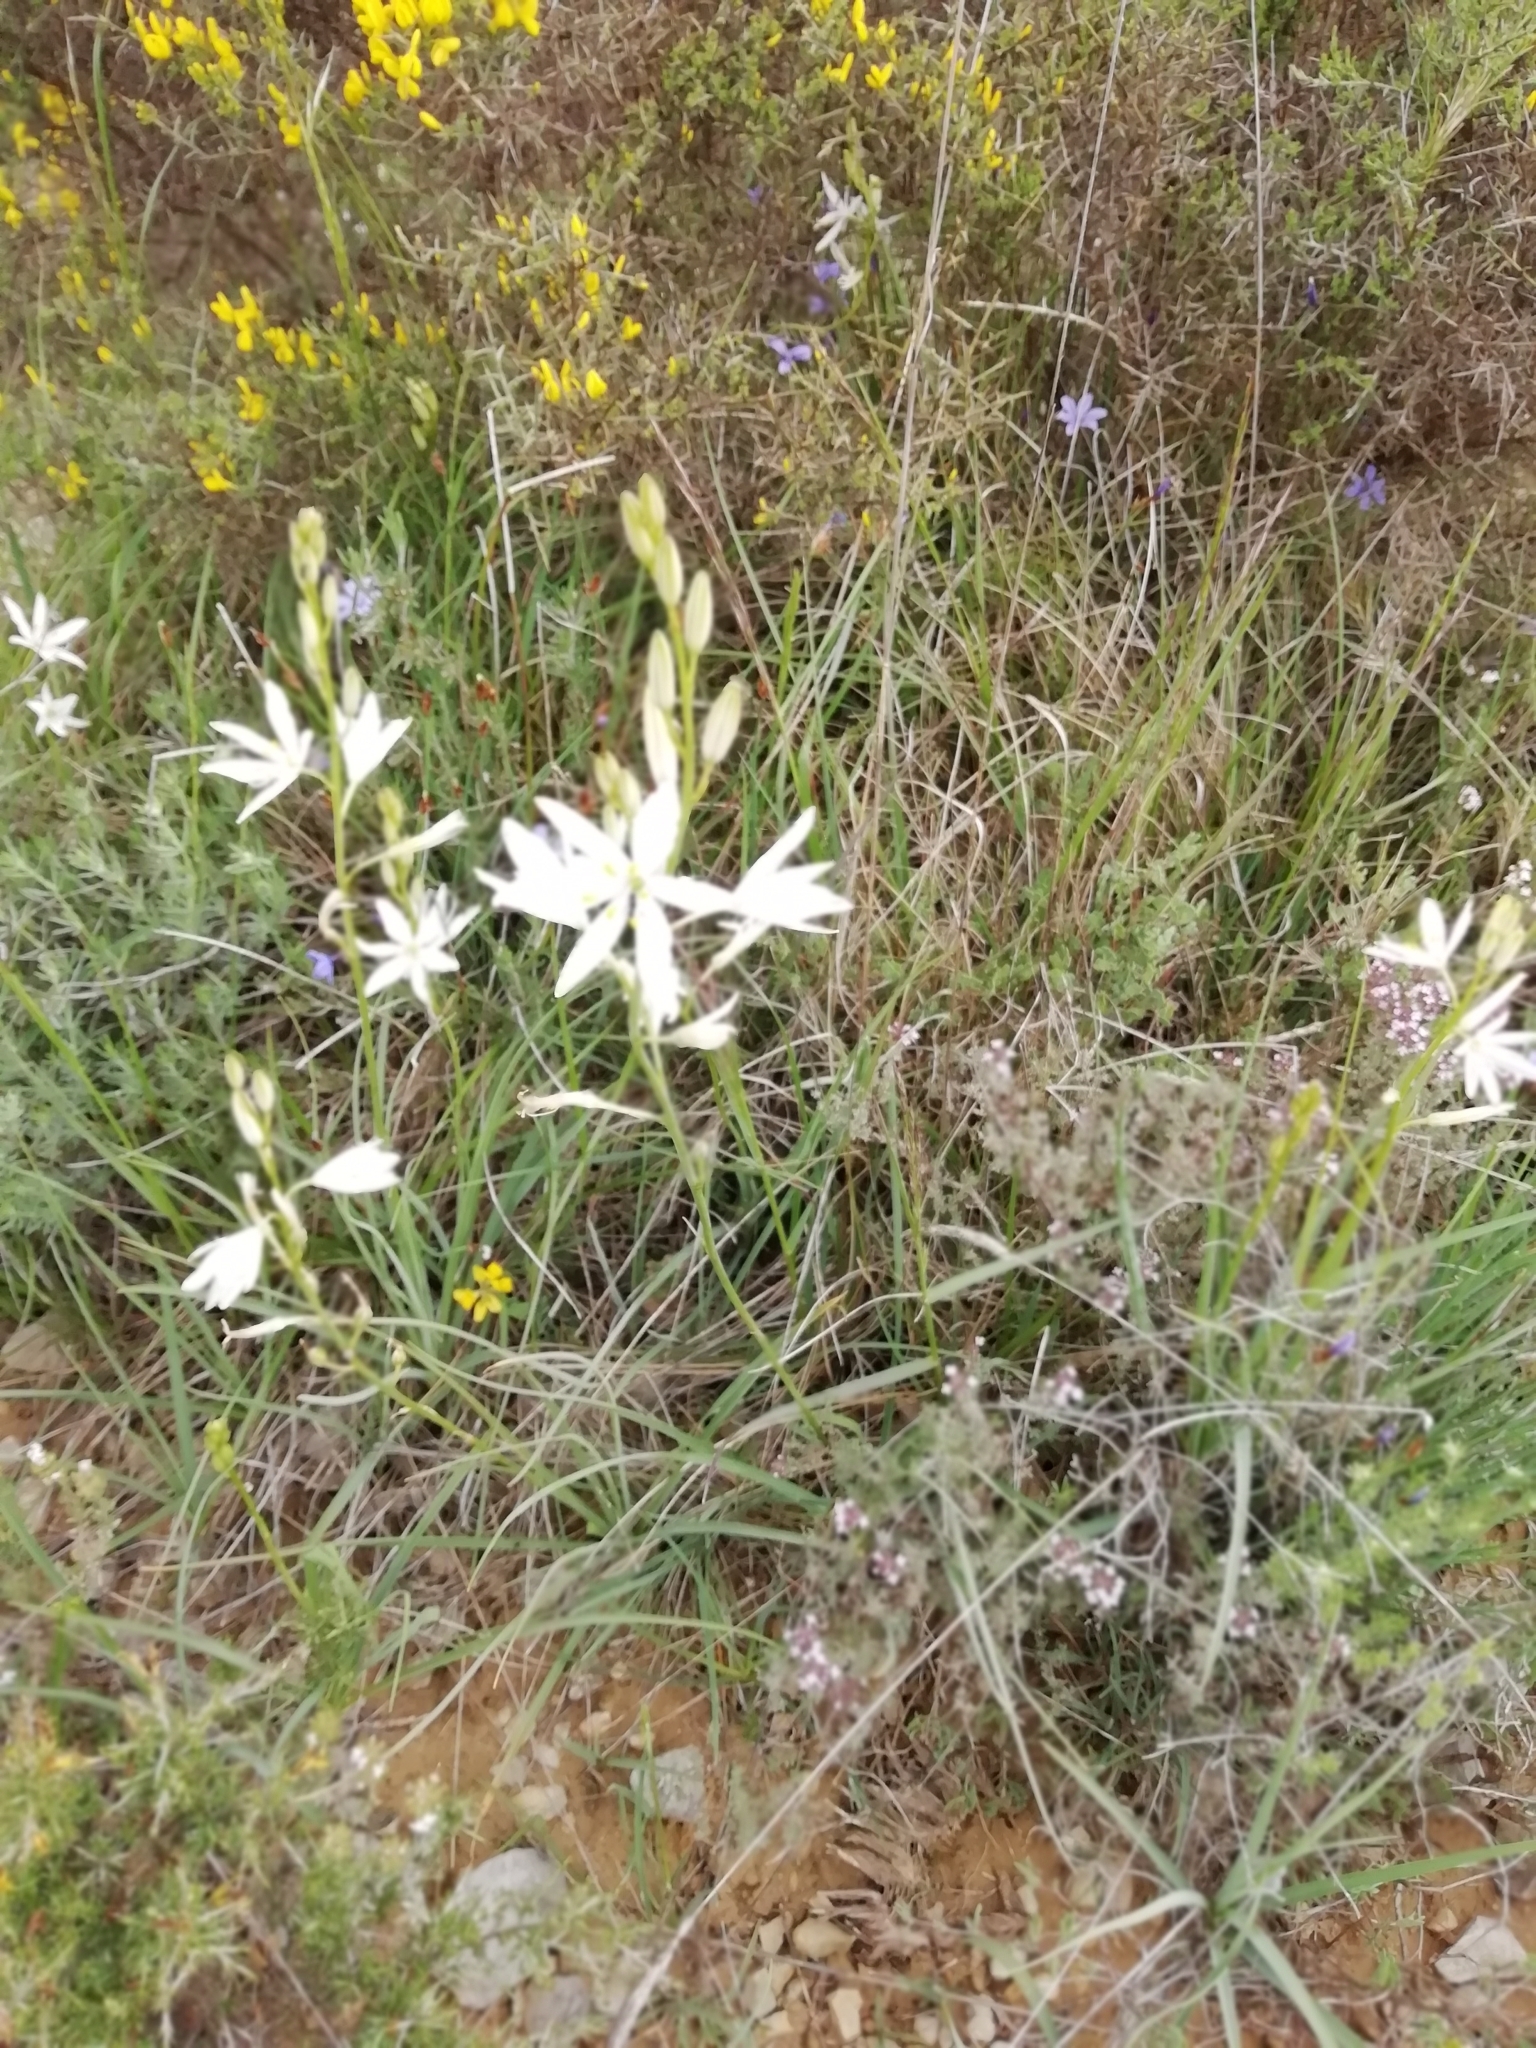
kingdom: Plantae
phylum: Tracheophyta
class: Liliopsida
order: Asparagales
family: Asparagaceae
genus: Anthericum
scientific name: Anthericum liliago
